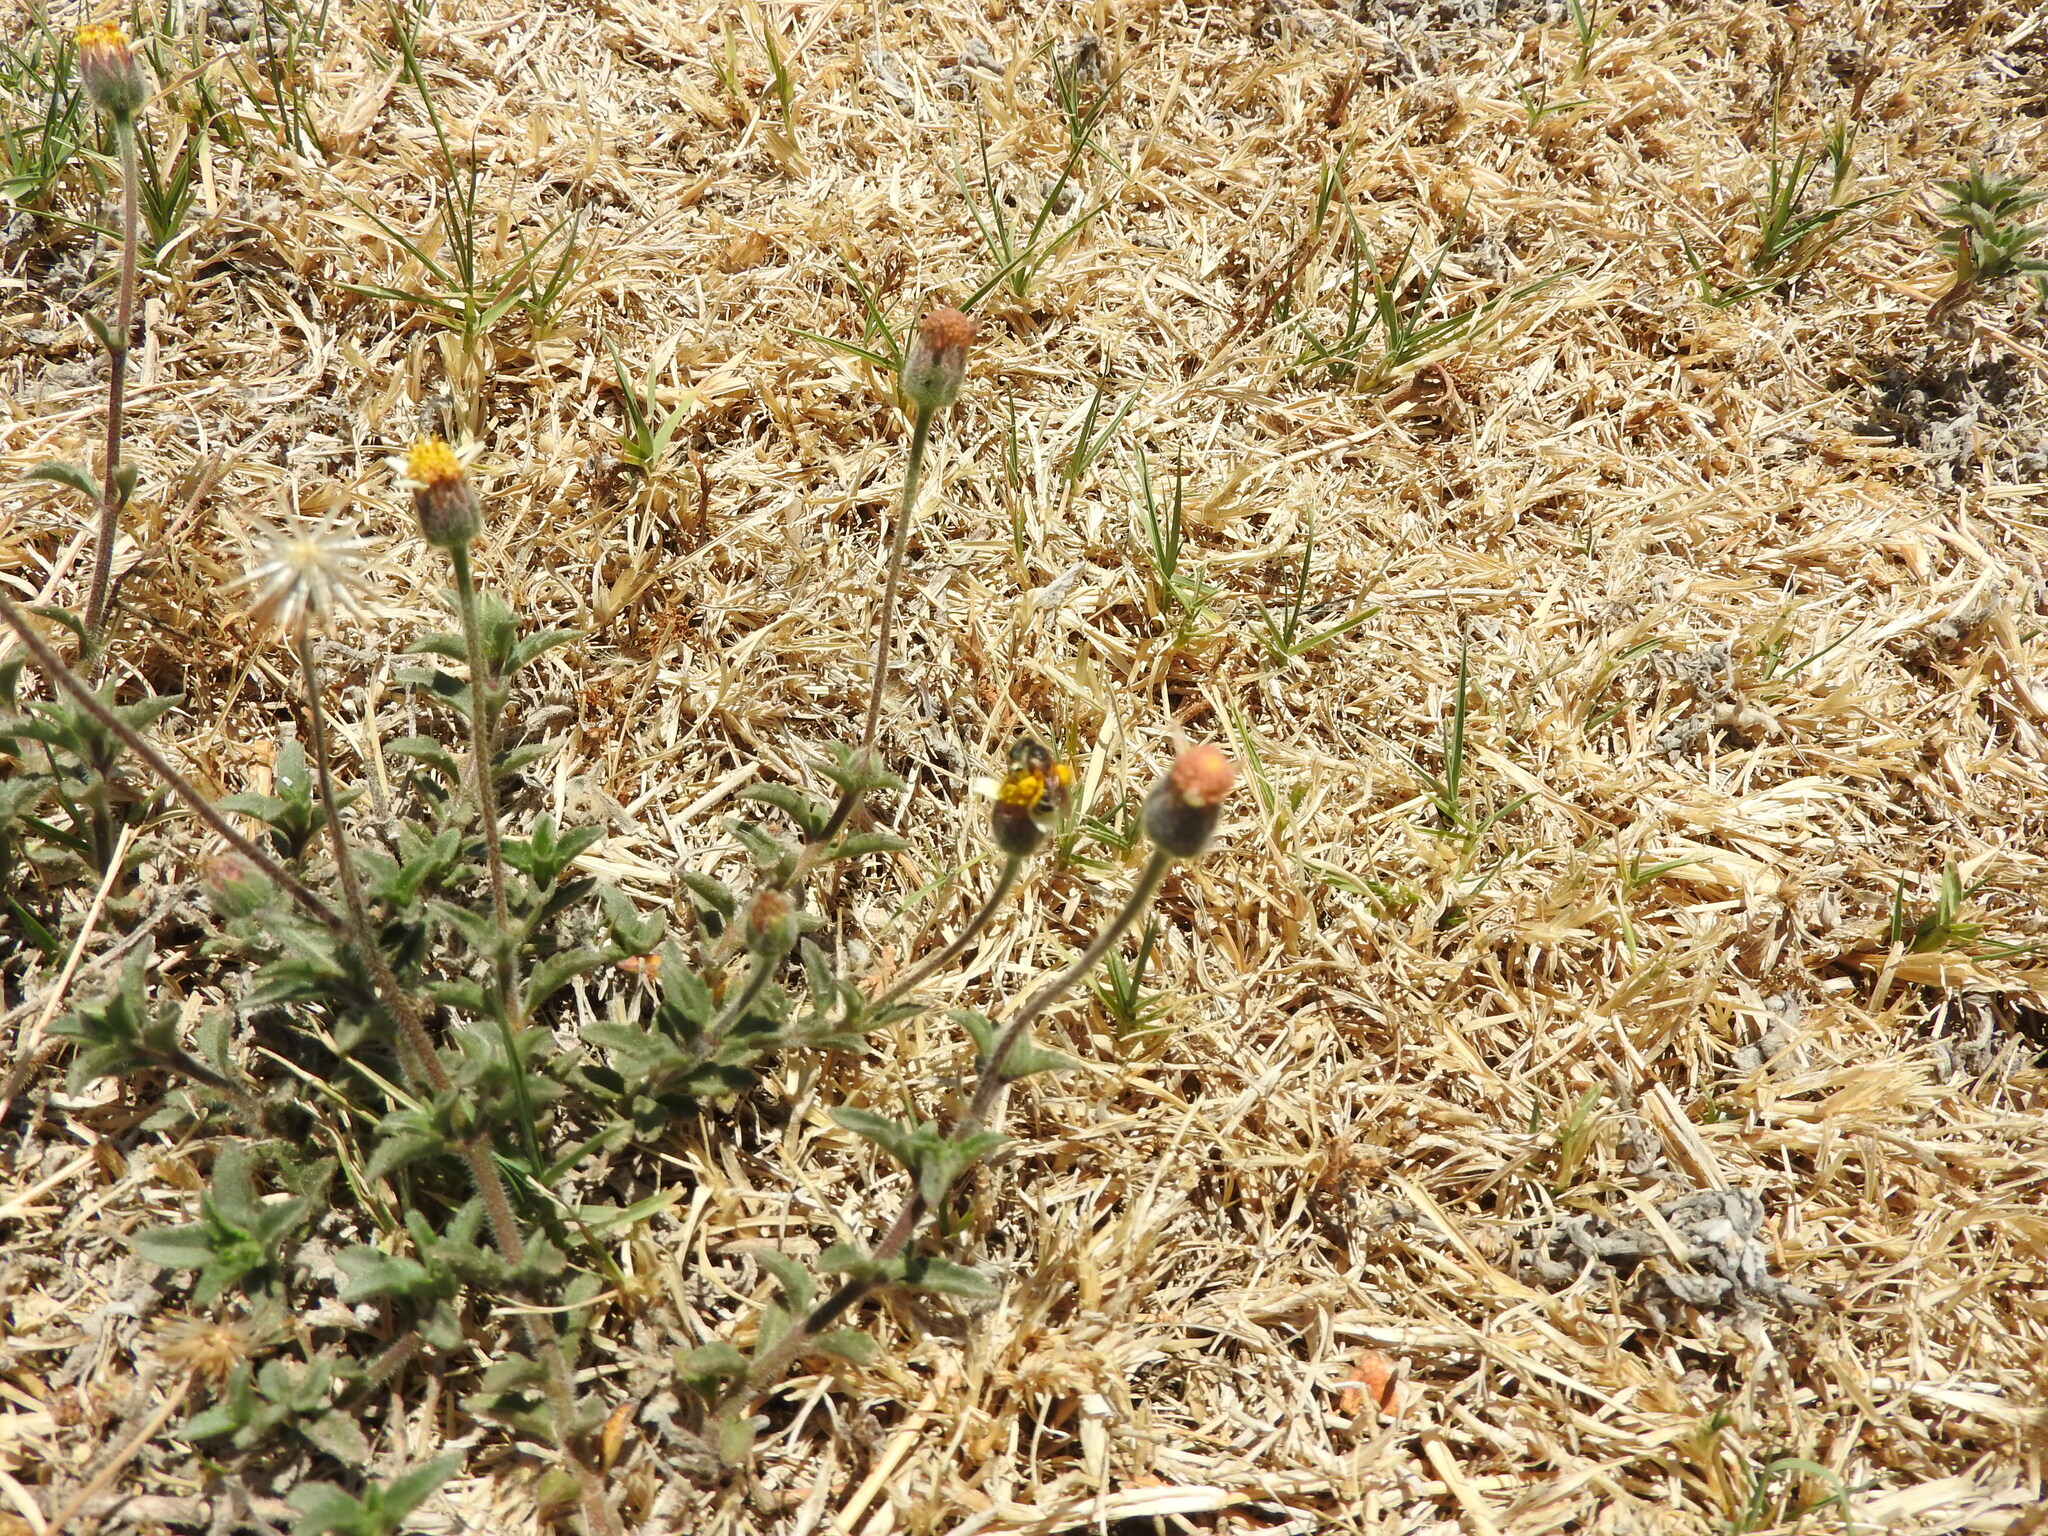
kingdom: Plantae
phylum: Tracheophyta
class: Magnoliopsida
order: Asterales
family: Asteraceae
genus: Tridax
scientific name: Tridax procumbens
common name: Coatbuttons
